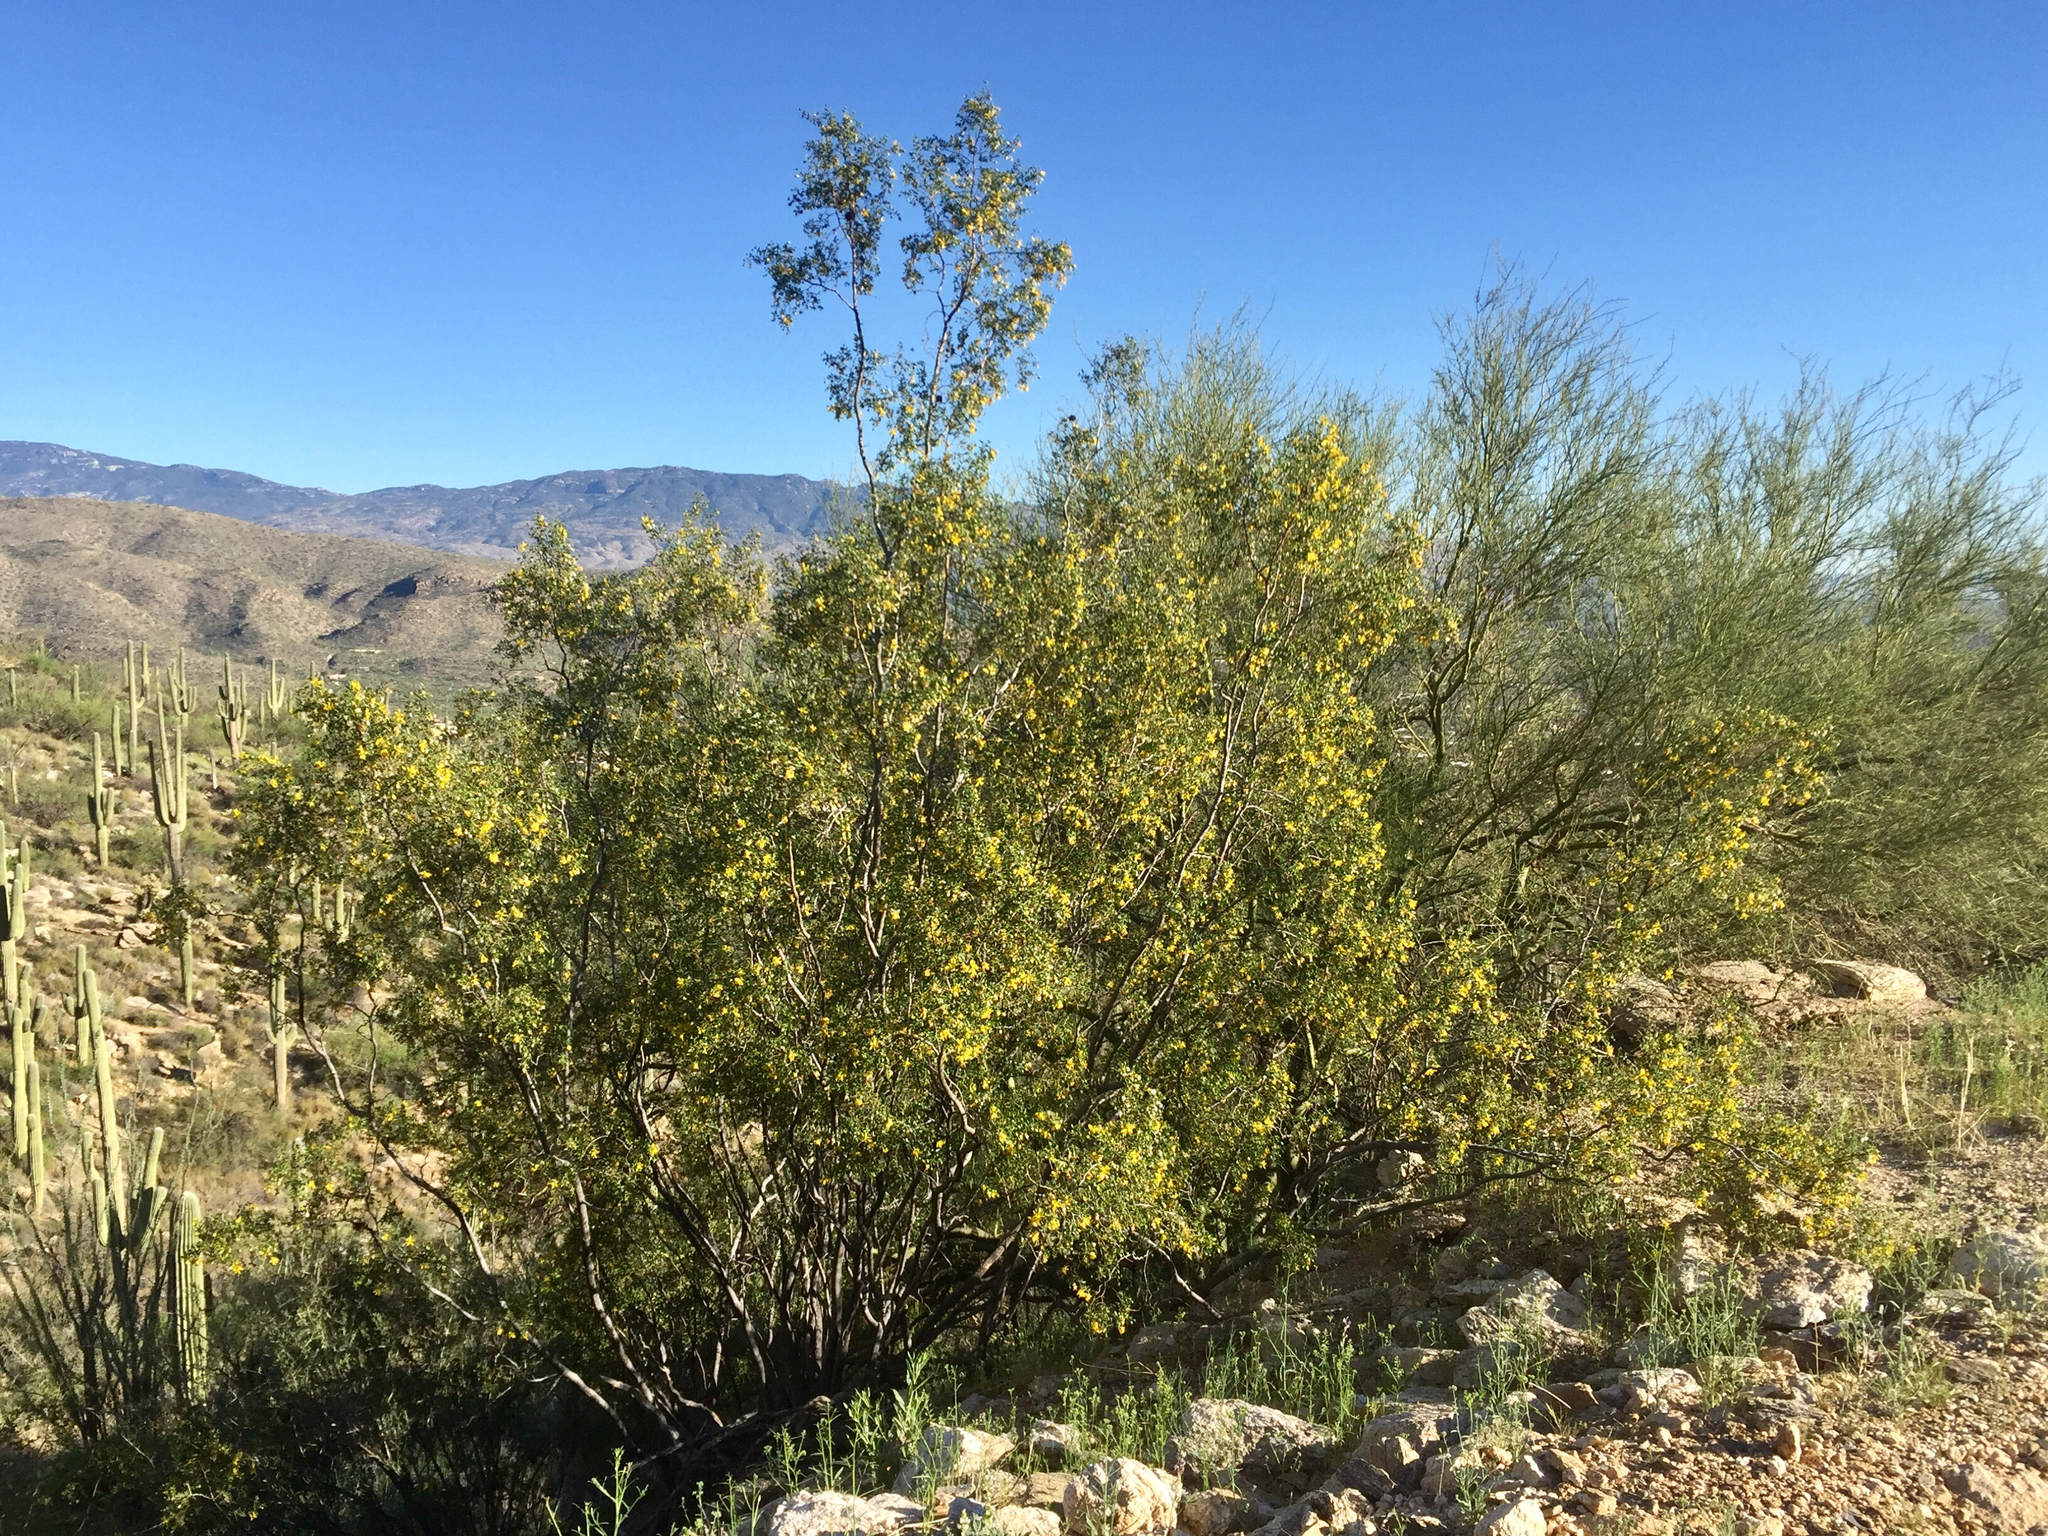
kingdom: Plantae
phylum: Tracheophyta
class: Magnoliopsida
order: Zygophyllales
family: Zygophyllaceae
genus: Larrea
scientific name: Larrea tridentata
